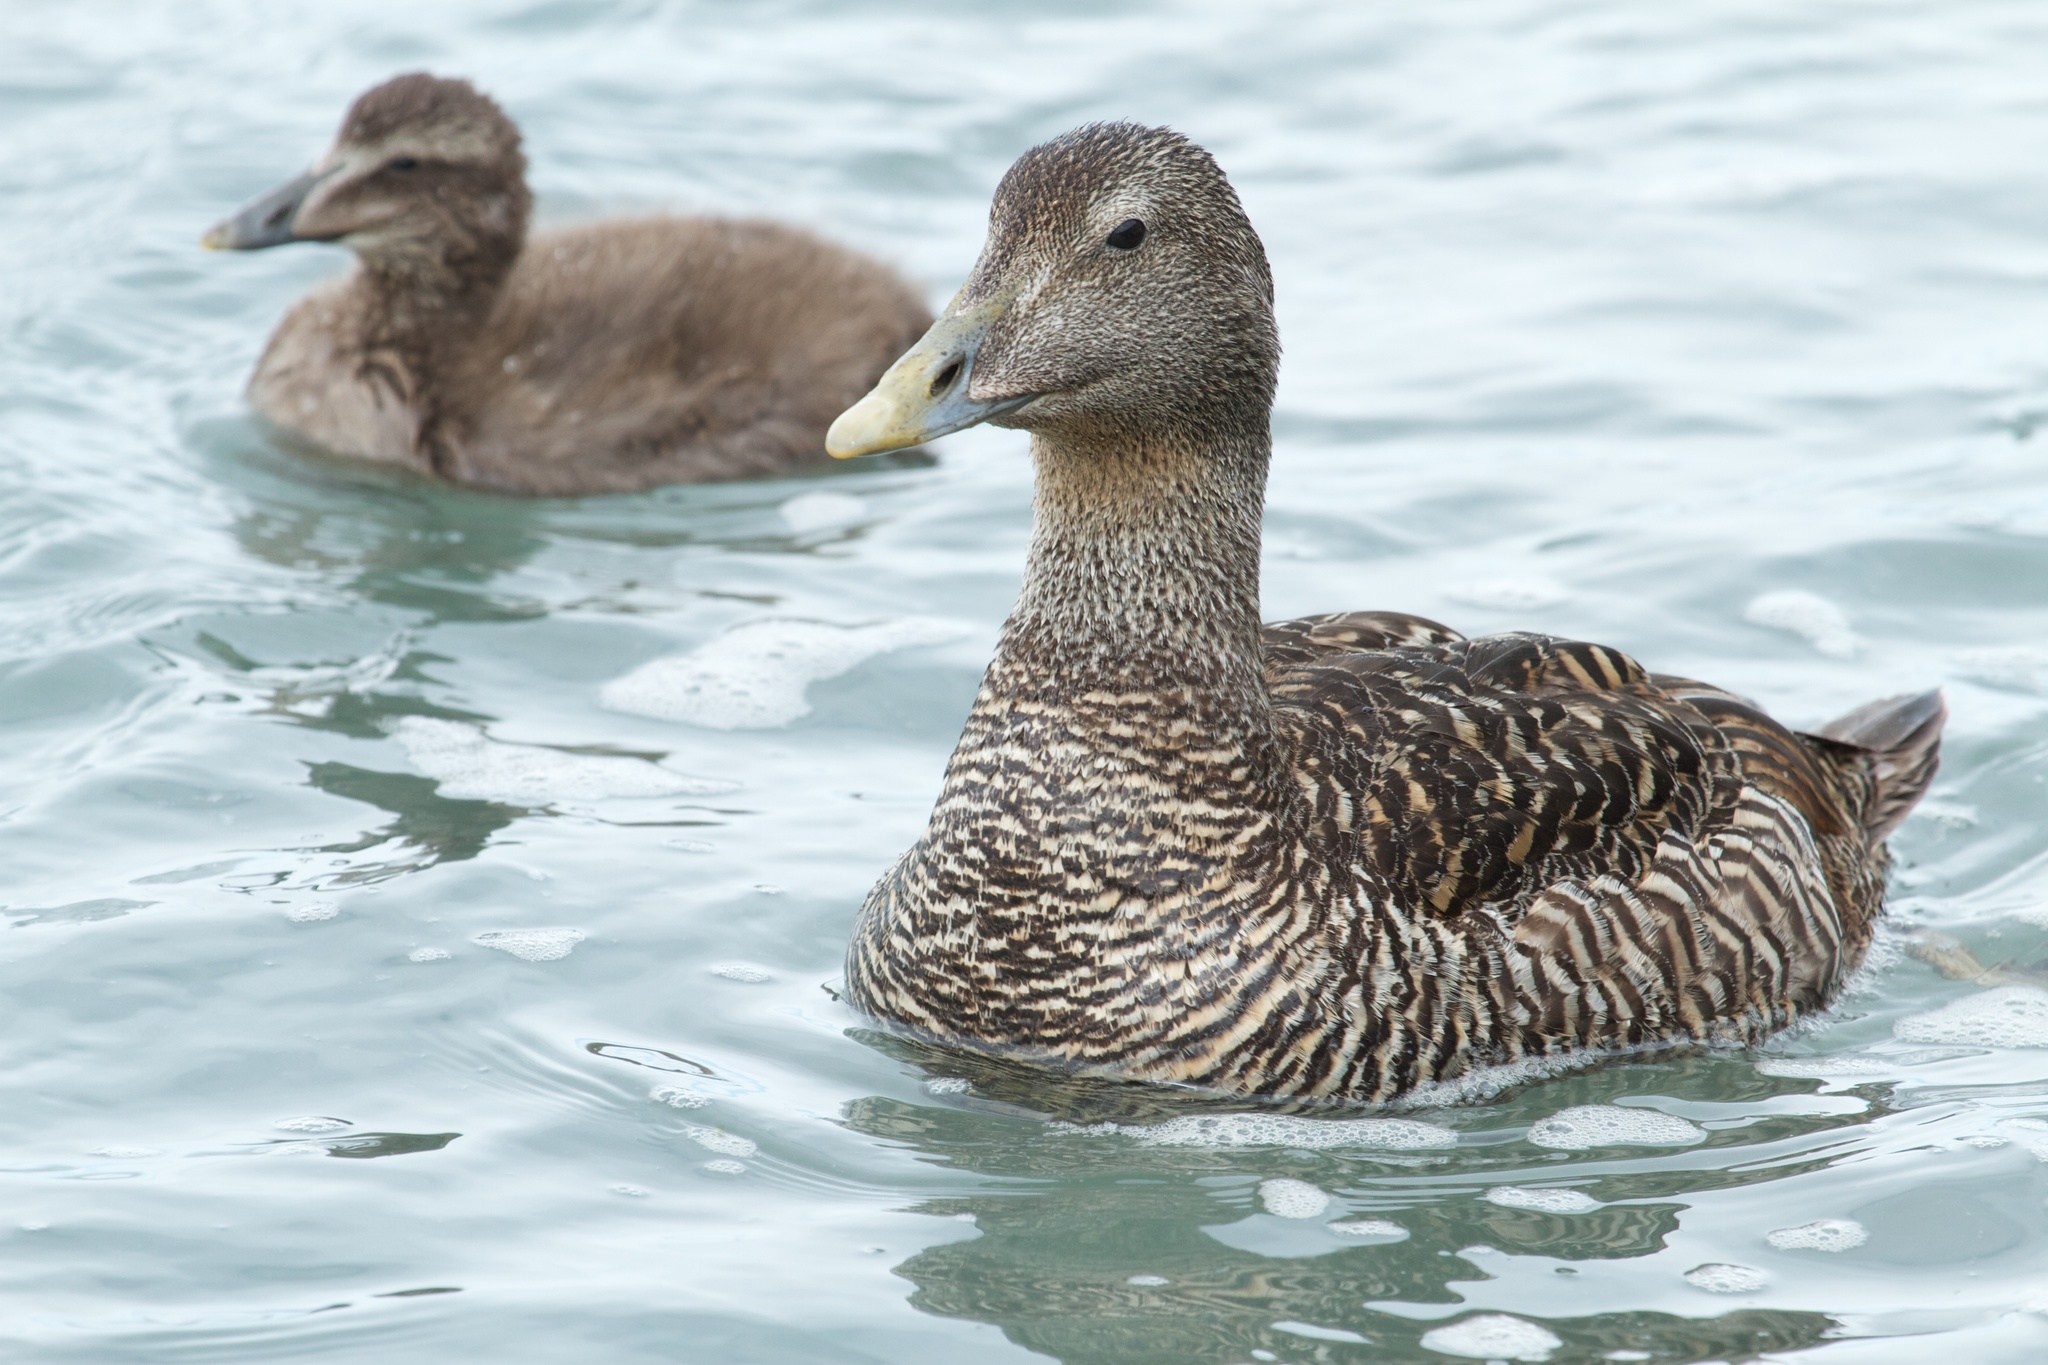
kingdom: Animalia
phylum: Chordata
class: Aves
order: Anseriformes
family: Anatidae
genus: Somateria
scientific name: Somateria mollissima
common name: Common eider
